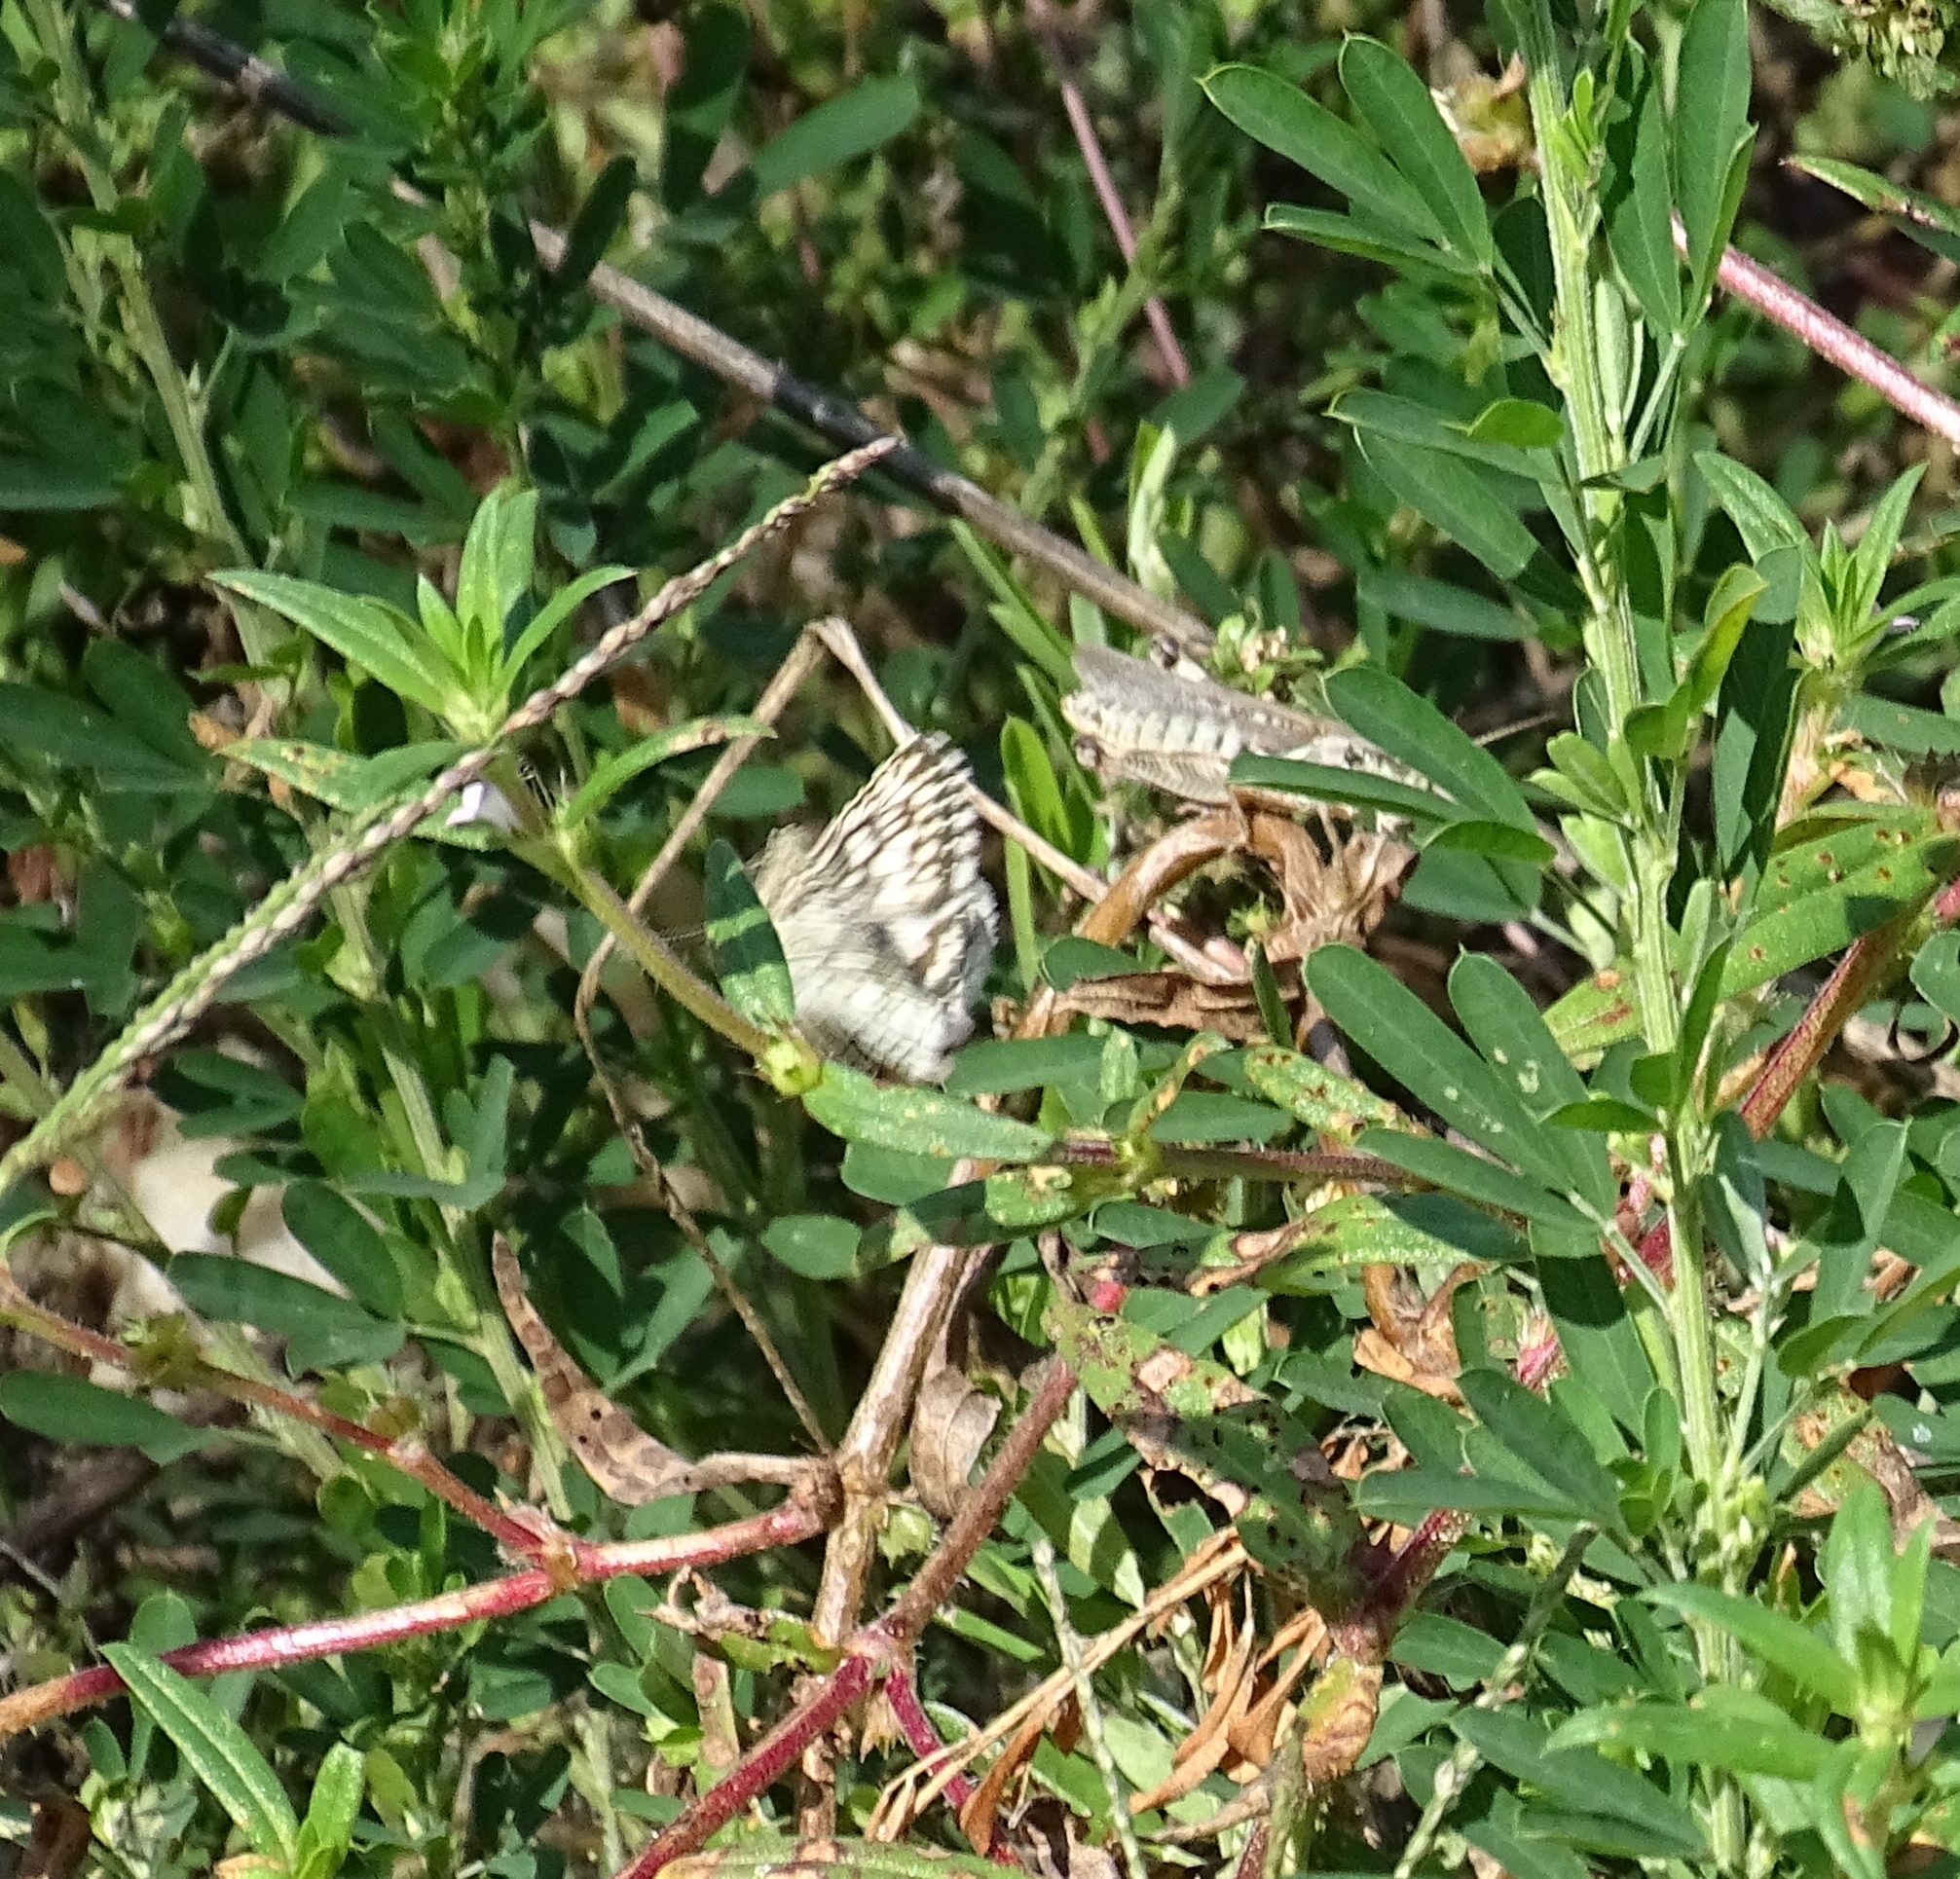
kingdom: Animalia
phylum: Arthropoda
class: Insecta
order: Lepidoptera
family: Hesperiidae
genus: Burnsius
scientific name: Burnsius communis
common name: Common checkered-skipper
